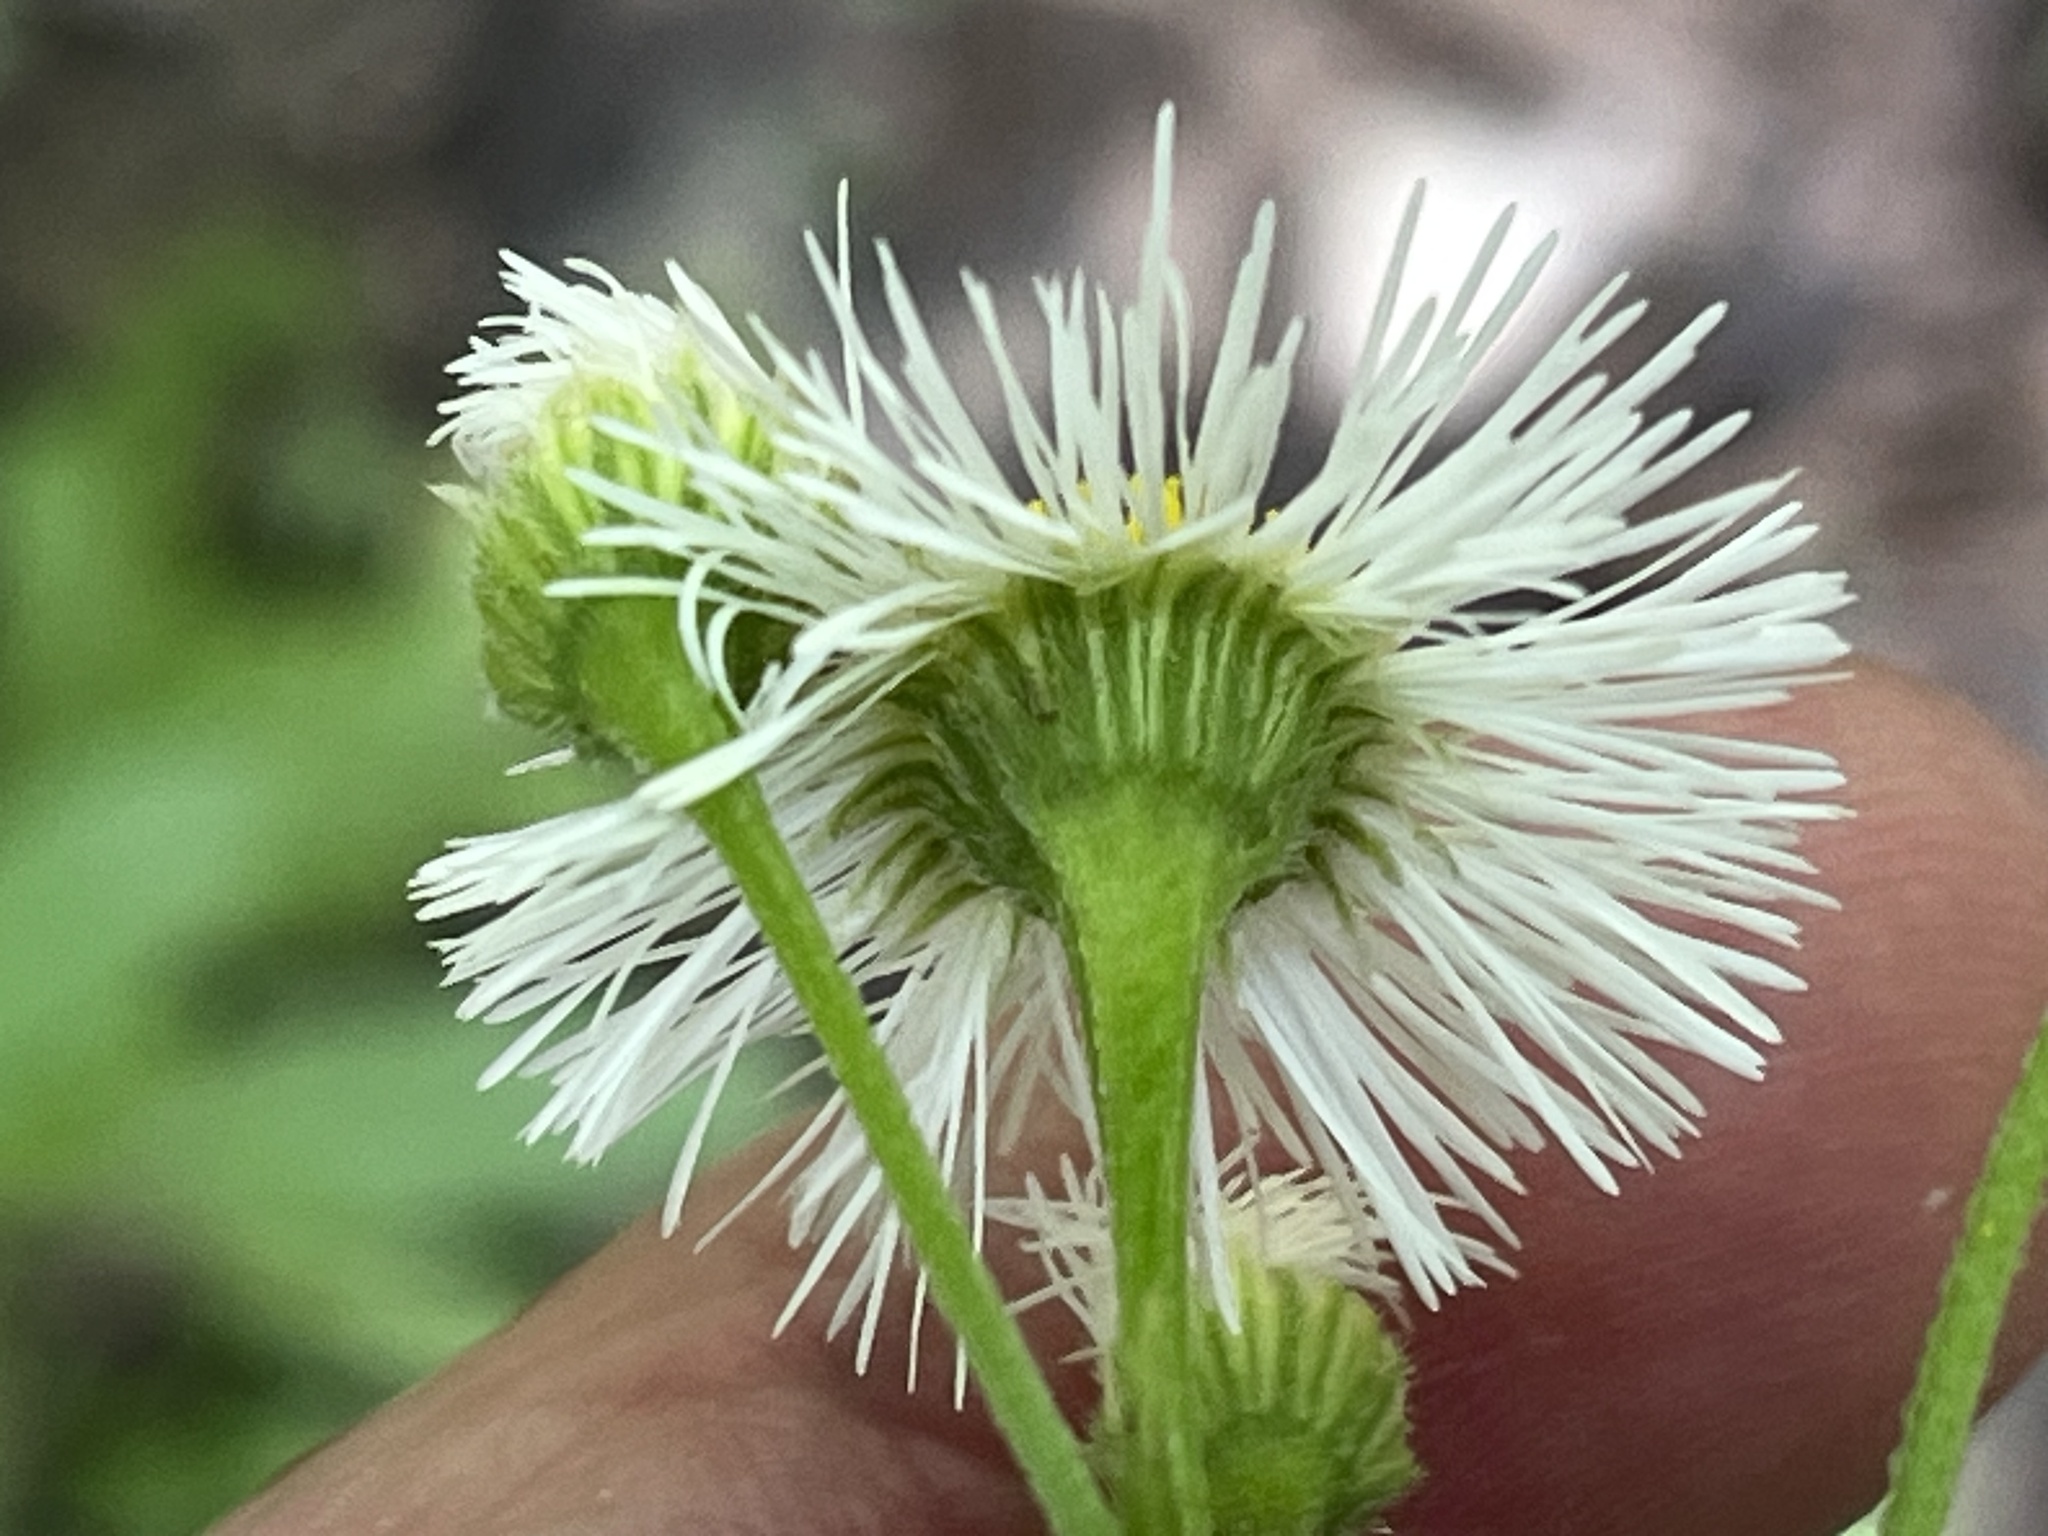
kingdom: Plantae
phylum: Tracheophyta
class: Magnoliopsida
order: Asterales
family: Asteraceae
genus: Erigeron
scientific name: Erigeron philadelphicus
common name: Robin's-plantain
